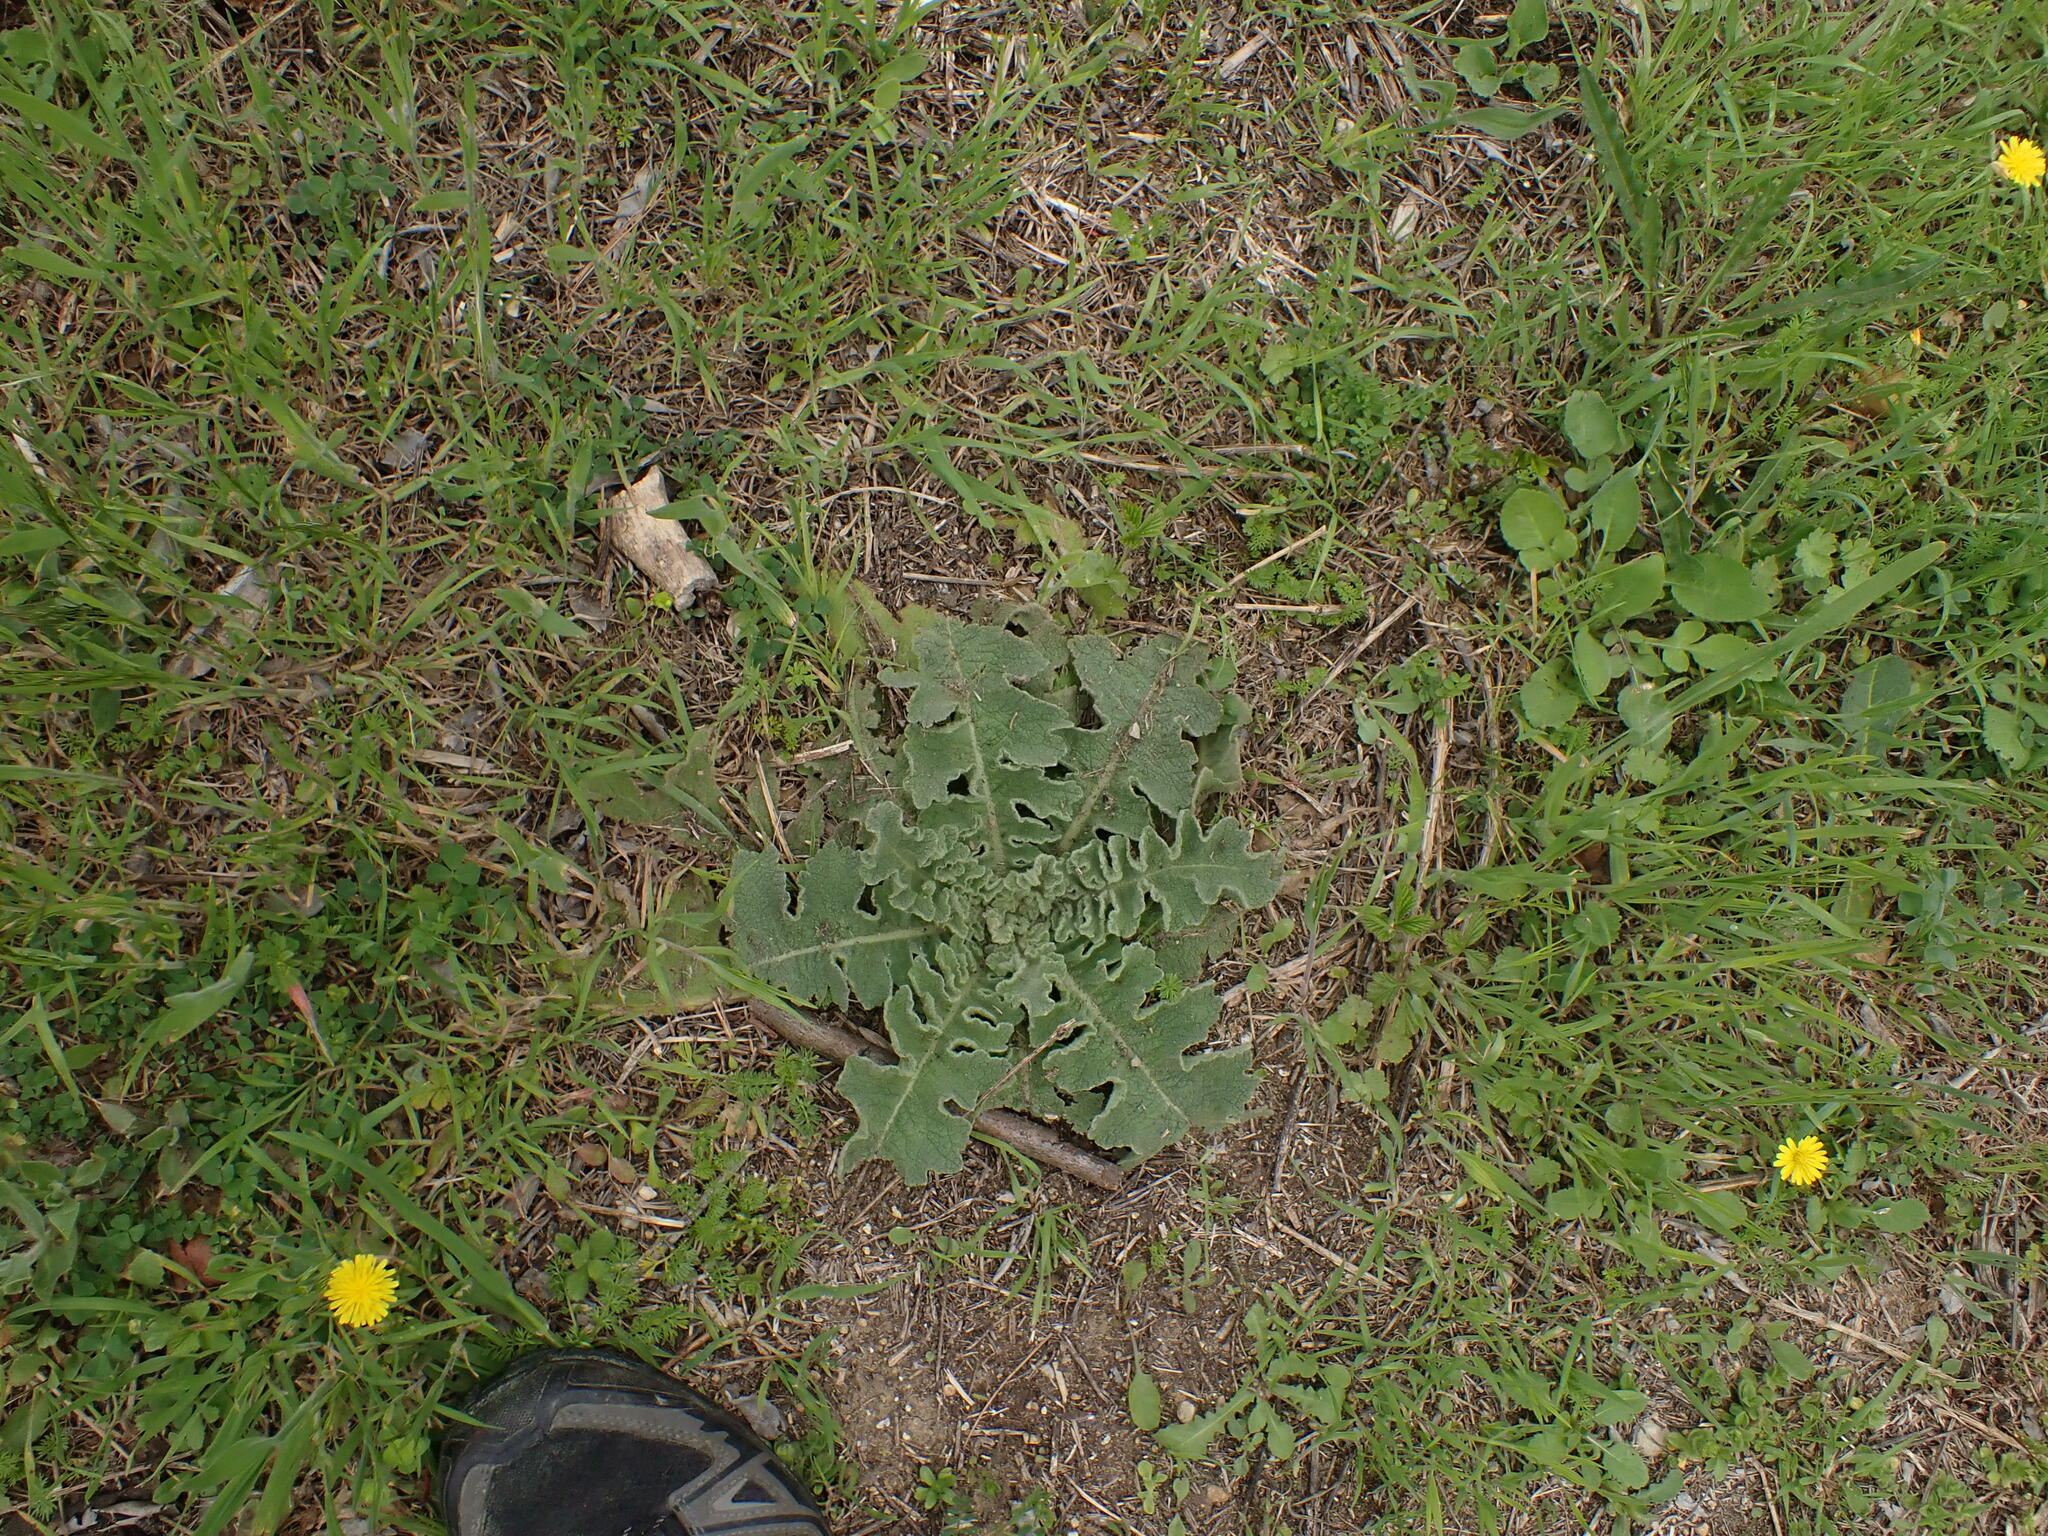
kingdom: Plantae
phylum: Tracheophyta
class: Magnoliopsida
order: Lamiales
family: Scrophulariaceae
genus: Verbascum
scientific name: Verbascum sinuatum
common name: Wavyleaf mullein
